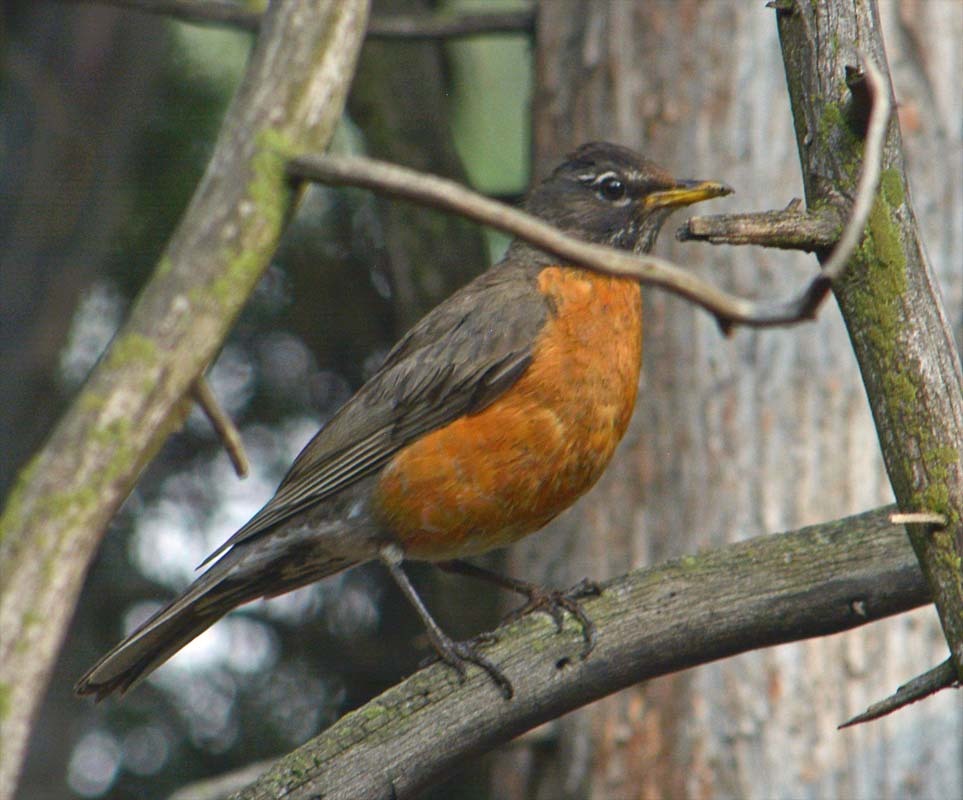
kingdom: Animalia
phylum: Chordata
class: Aves
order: Passeriformes
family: Turdidae
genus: Turdus
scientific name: Turdus migratorius
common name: American robin
